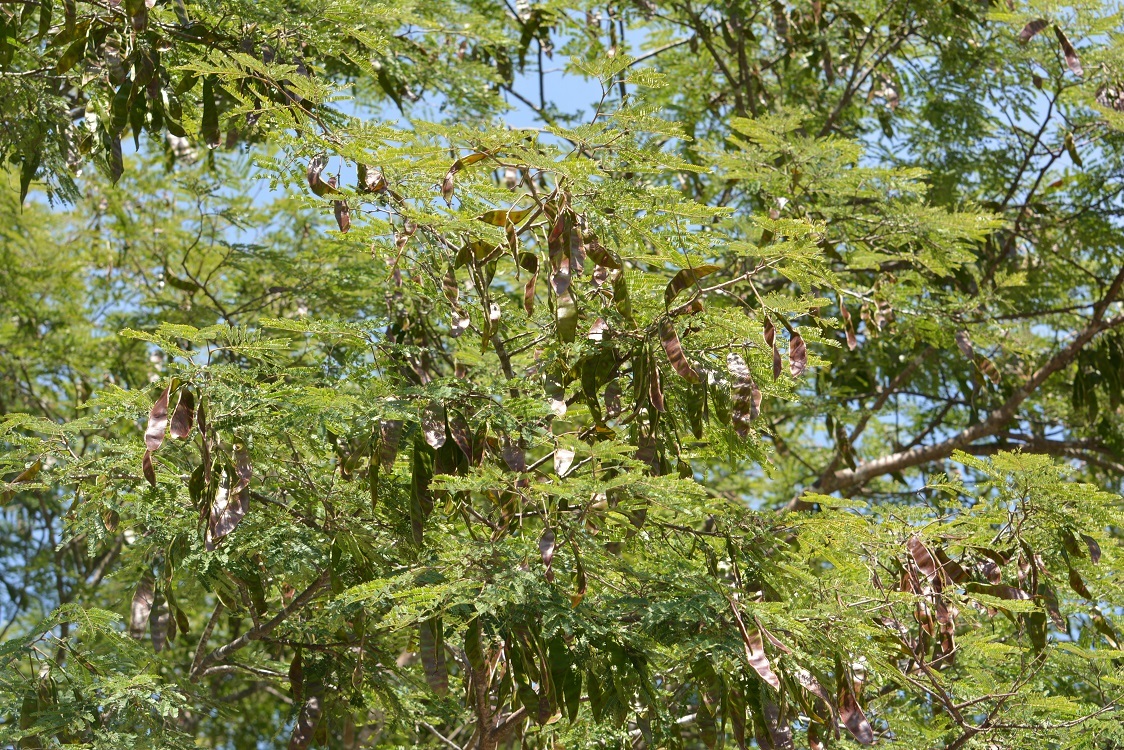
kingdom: Plantae
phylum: Tracheophyta
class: Magnoliopsida
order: Fabales
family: Fabaceae
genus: Lysiloma
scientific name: Lysiloma divaricatum
